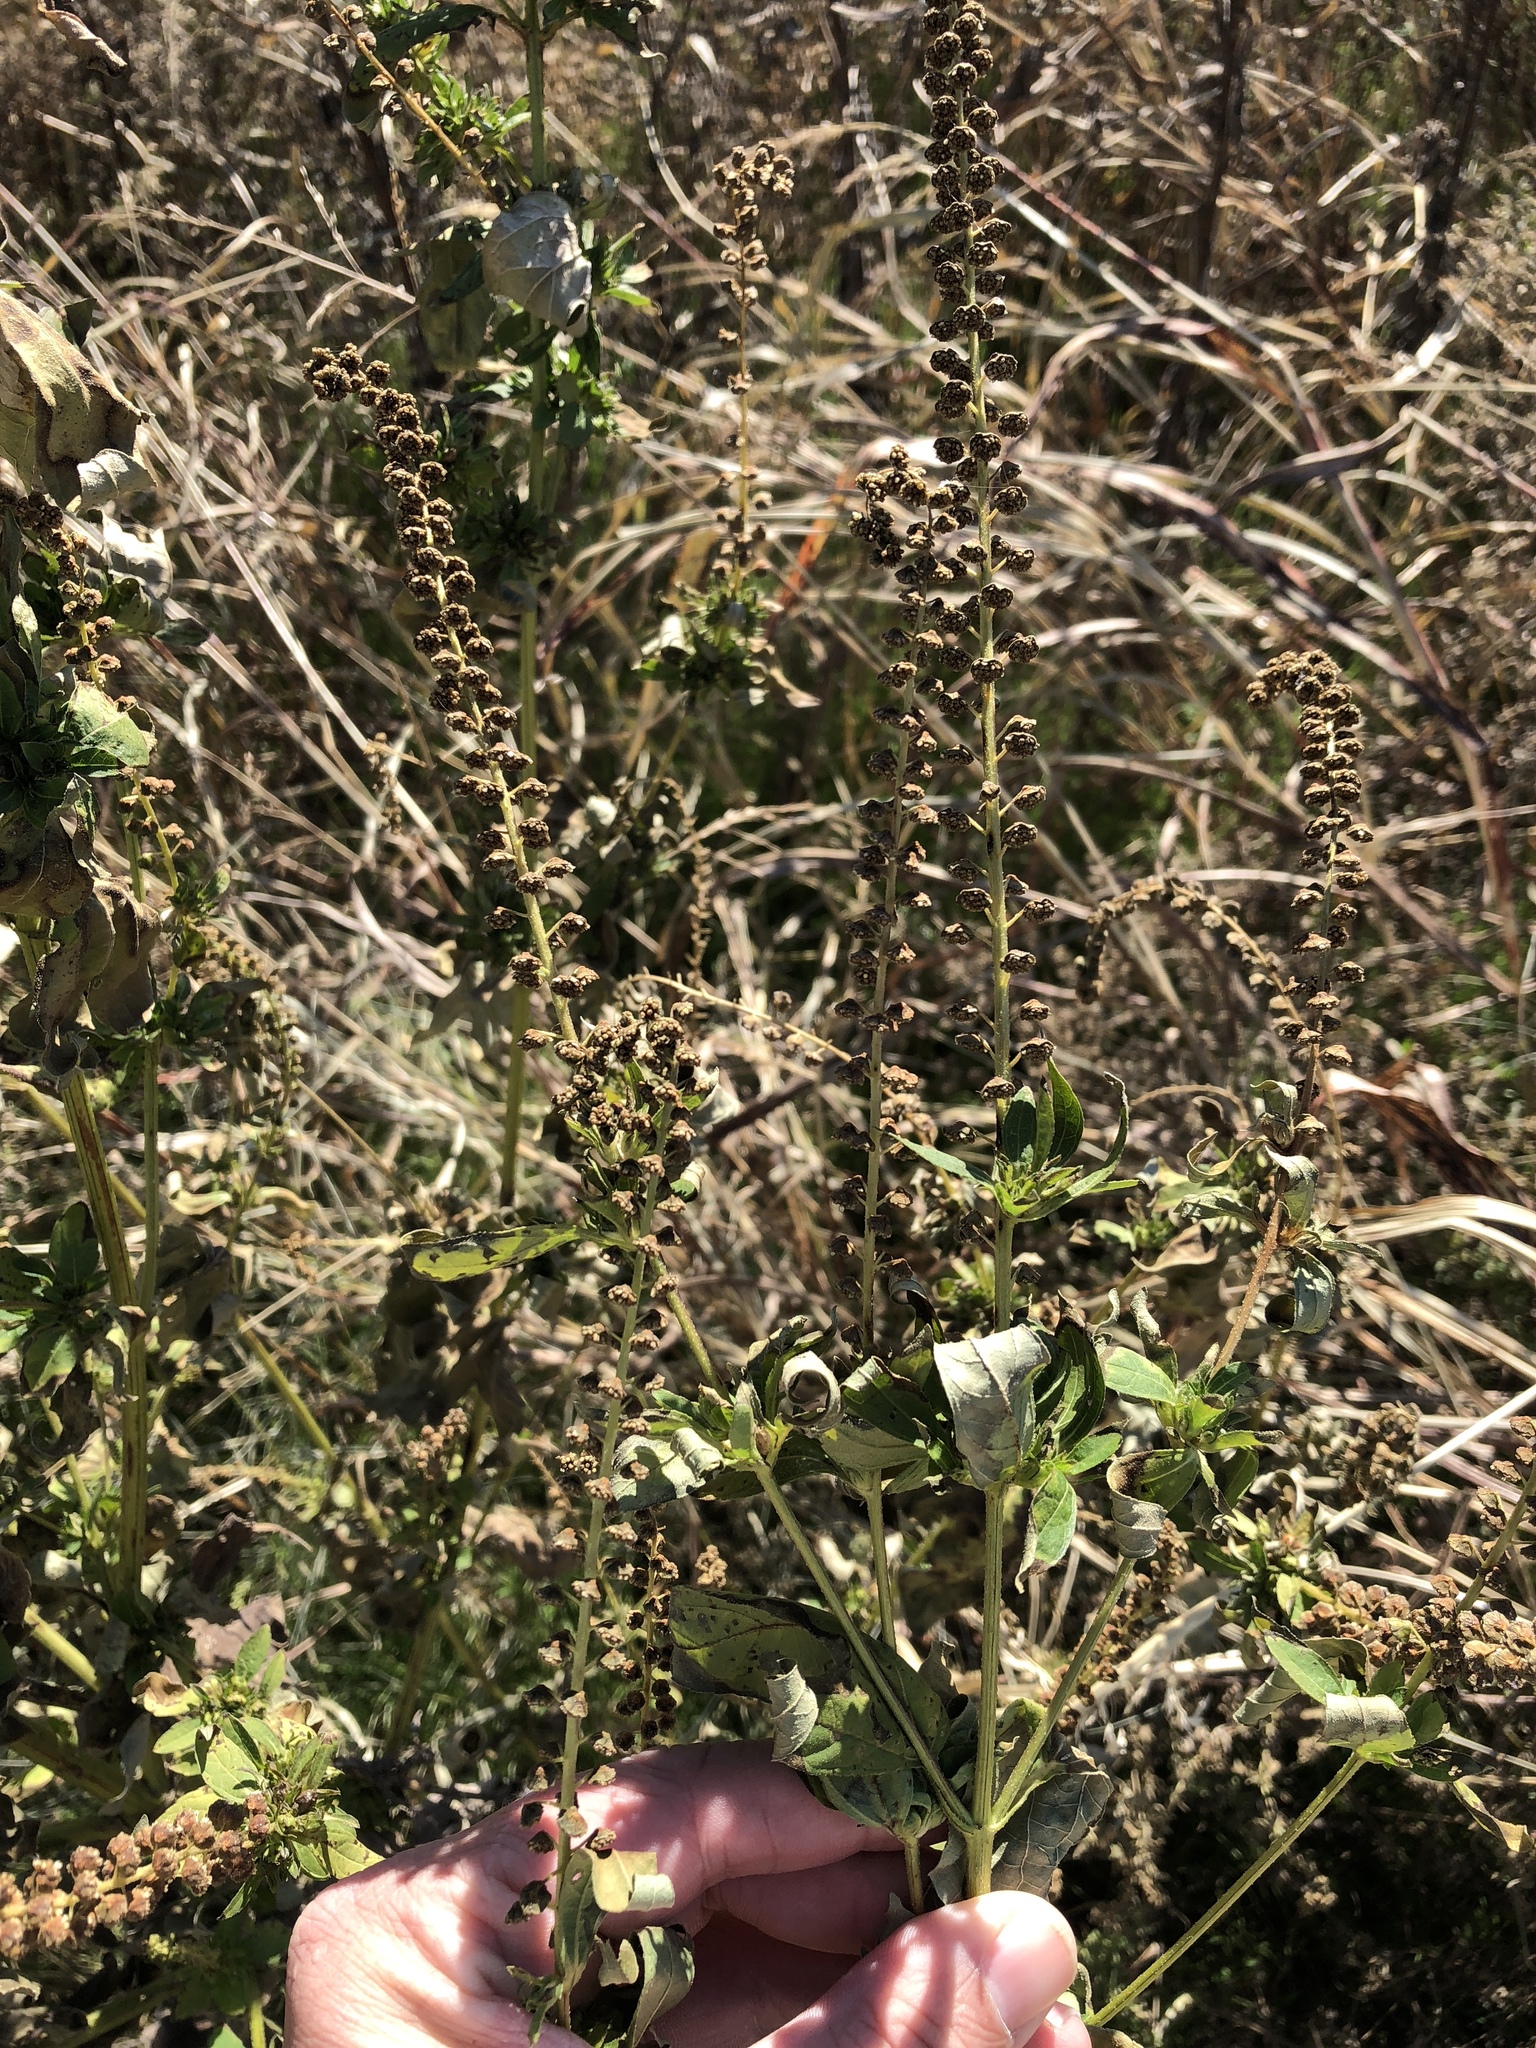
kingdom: Plantae
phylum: Tracheophyta
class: Magnoliopsida
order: Asterales
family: Asteraceae
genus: Ambrosia
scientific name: Ambrosia trifida
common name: Giant ragweed
